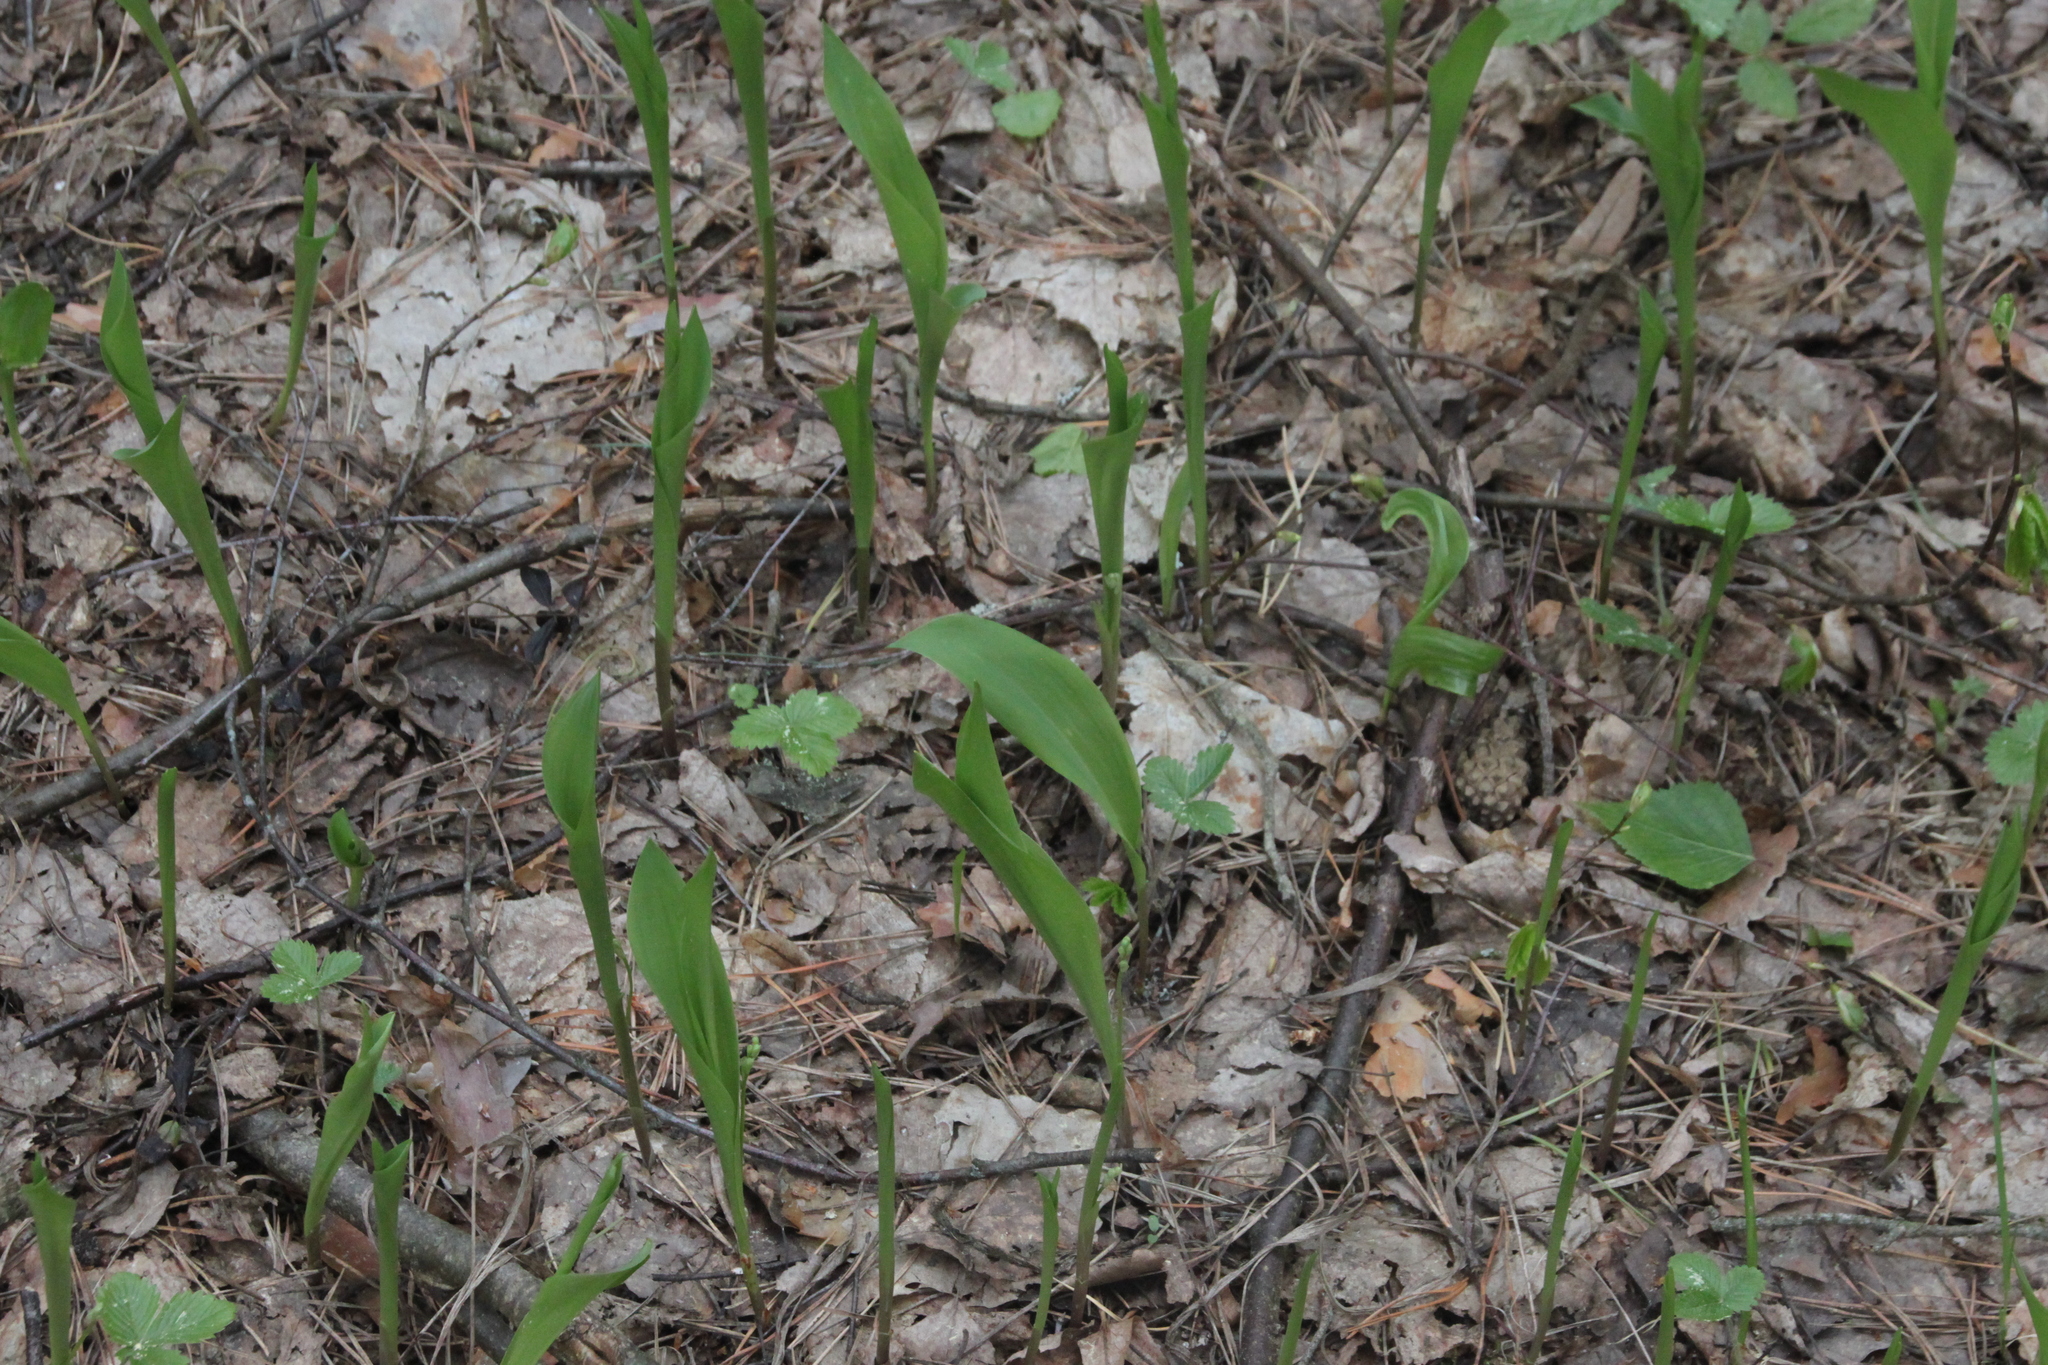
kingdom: Plantae
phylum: Tracheophyta
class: Liliopsida
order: Asparagales
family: Asparagaceae
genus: Convallaria
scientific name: Convallaria majalis
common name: Lily-of-the-valley
